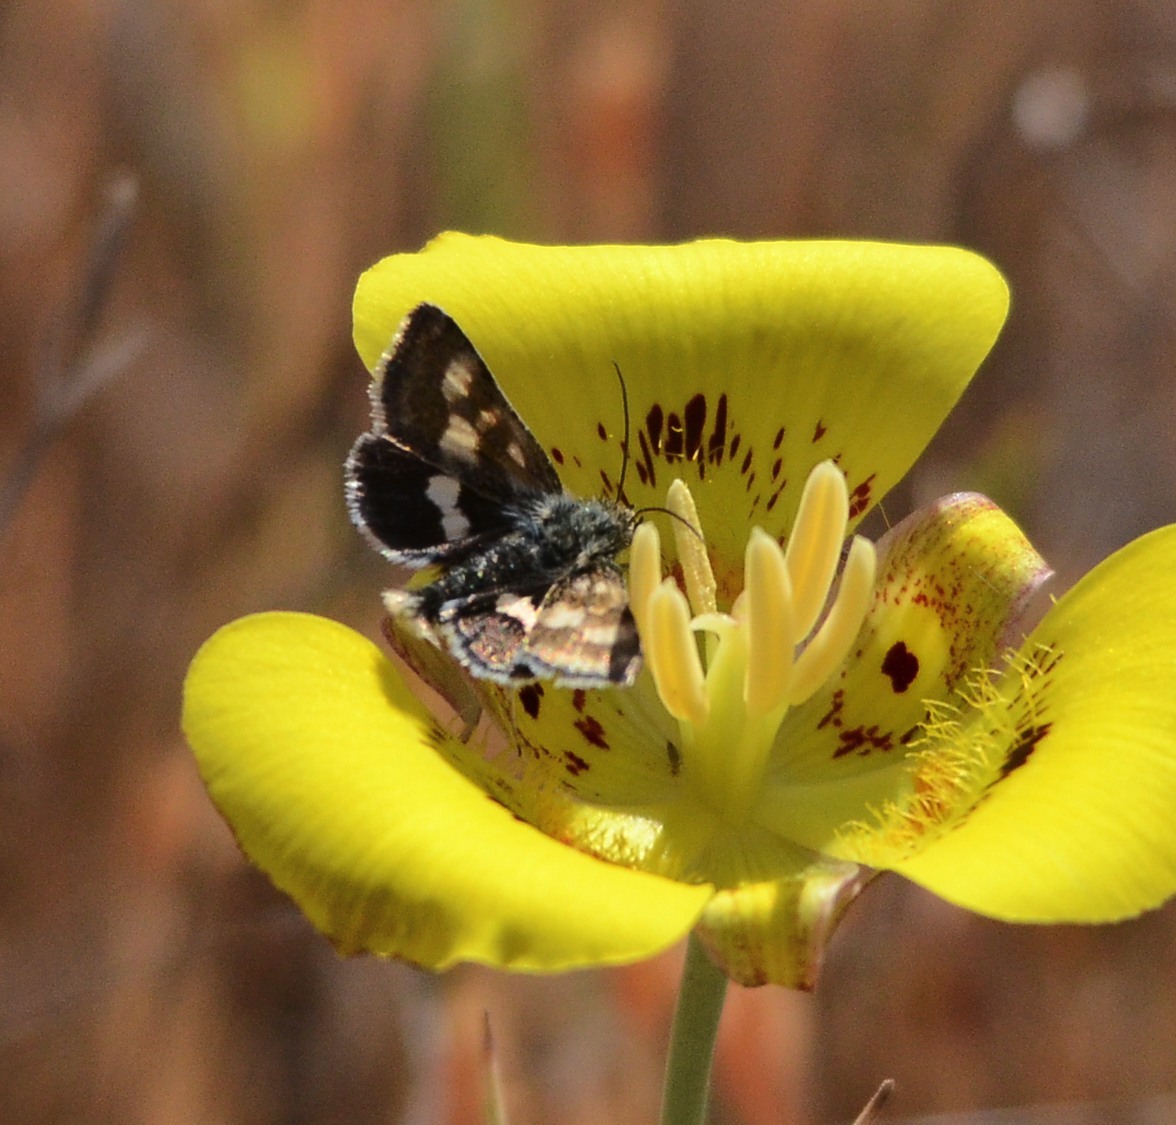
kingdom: Animalia
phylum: Arthropoda
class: Insecta
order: Lepidoptera
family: Noctuidae
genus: Heliothodes
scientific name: Heliothodes diminutiva
